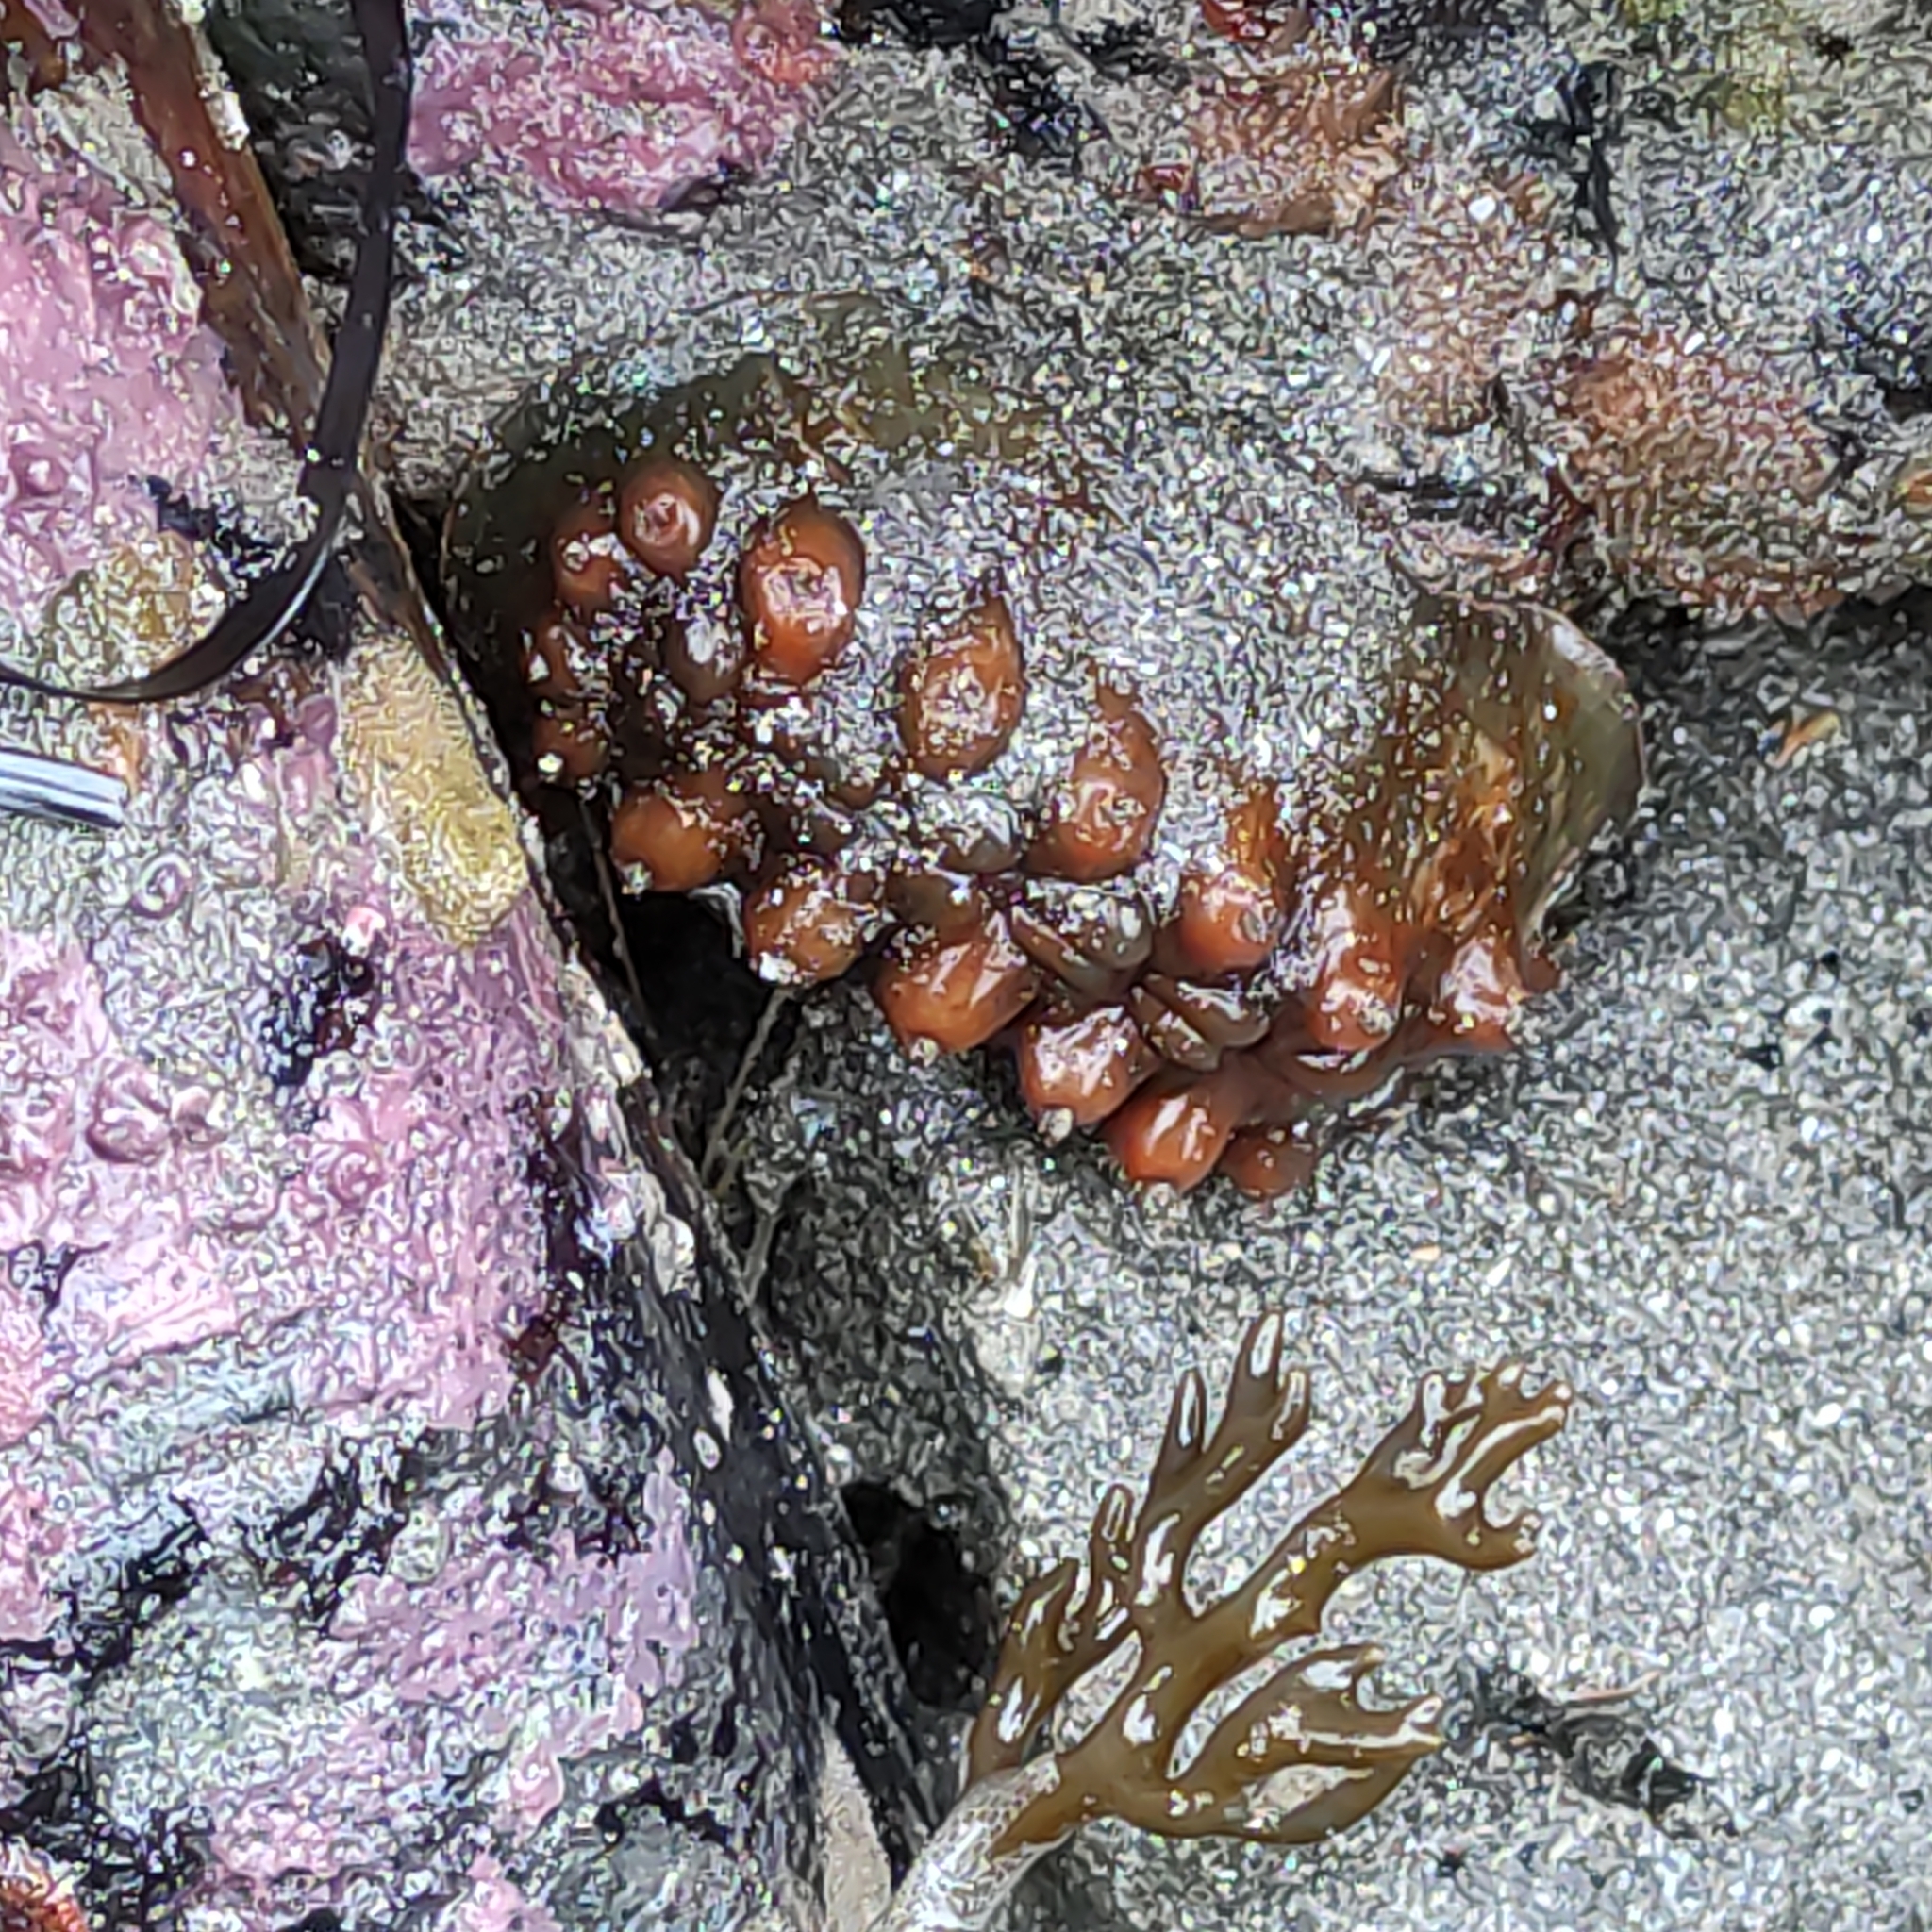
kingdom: Animalia
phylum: Mollusca
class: Polyplacophora
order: Chitonida
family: Acanthochitonidae
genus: Cryptoconchus
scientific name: Cryptoconchus porosus
